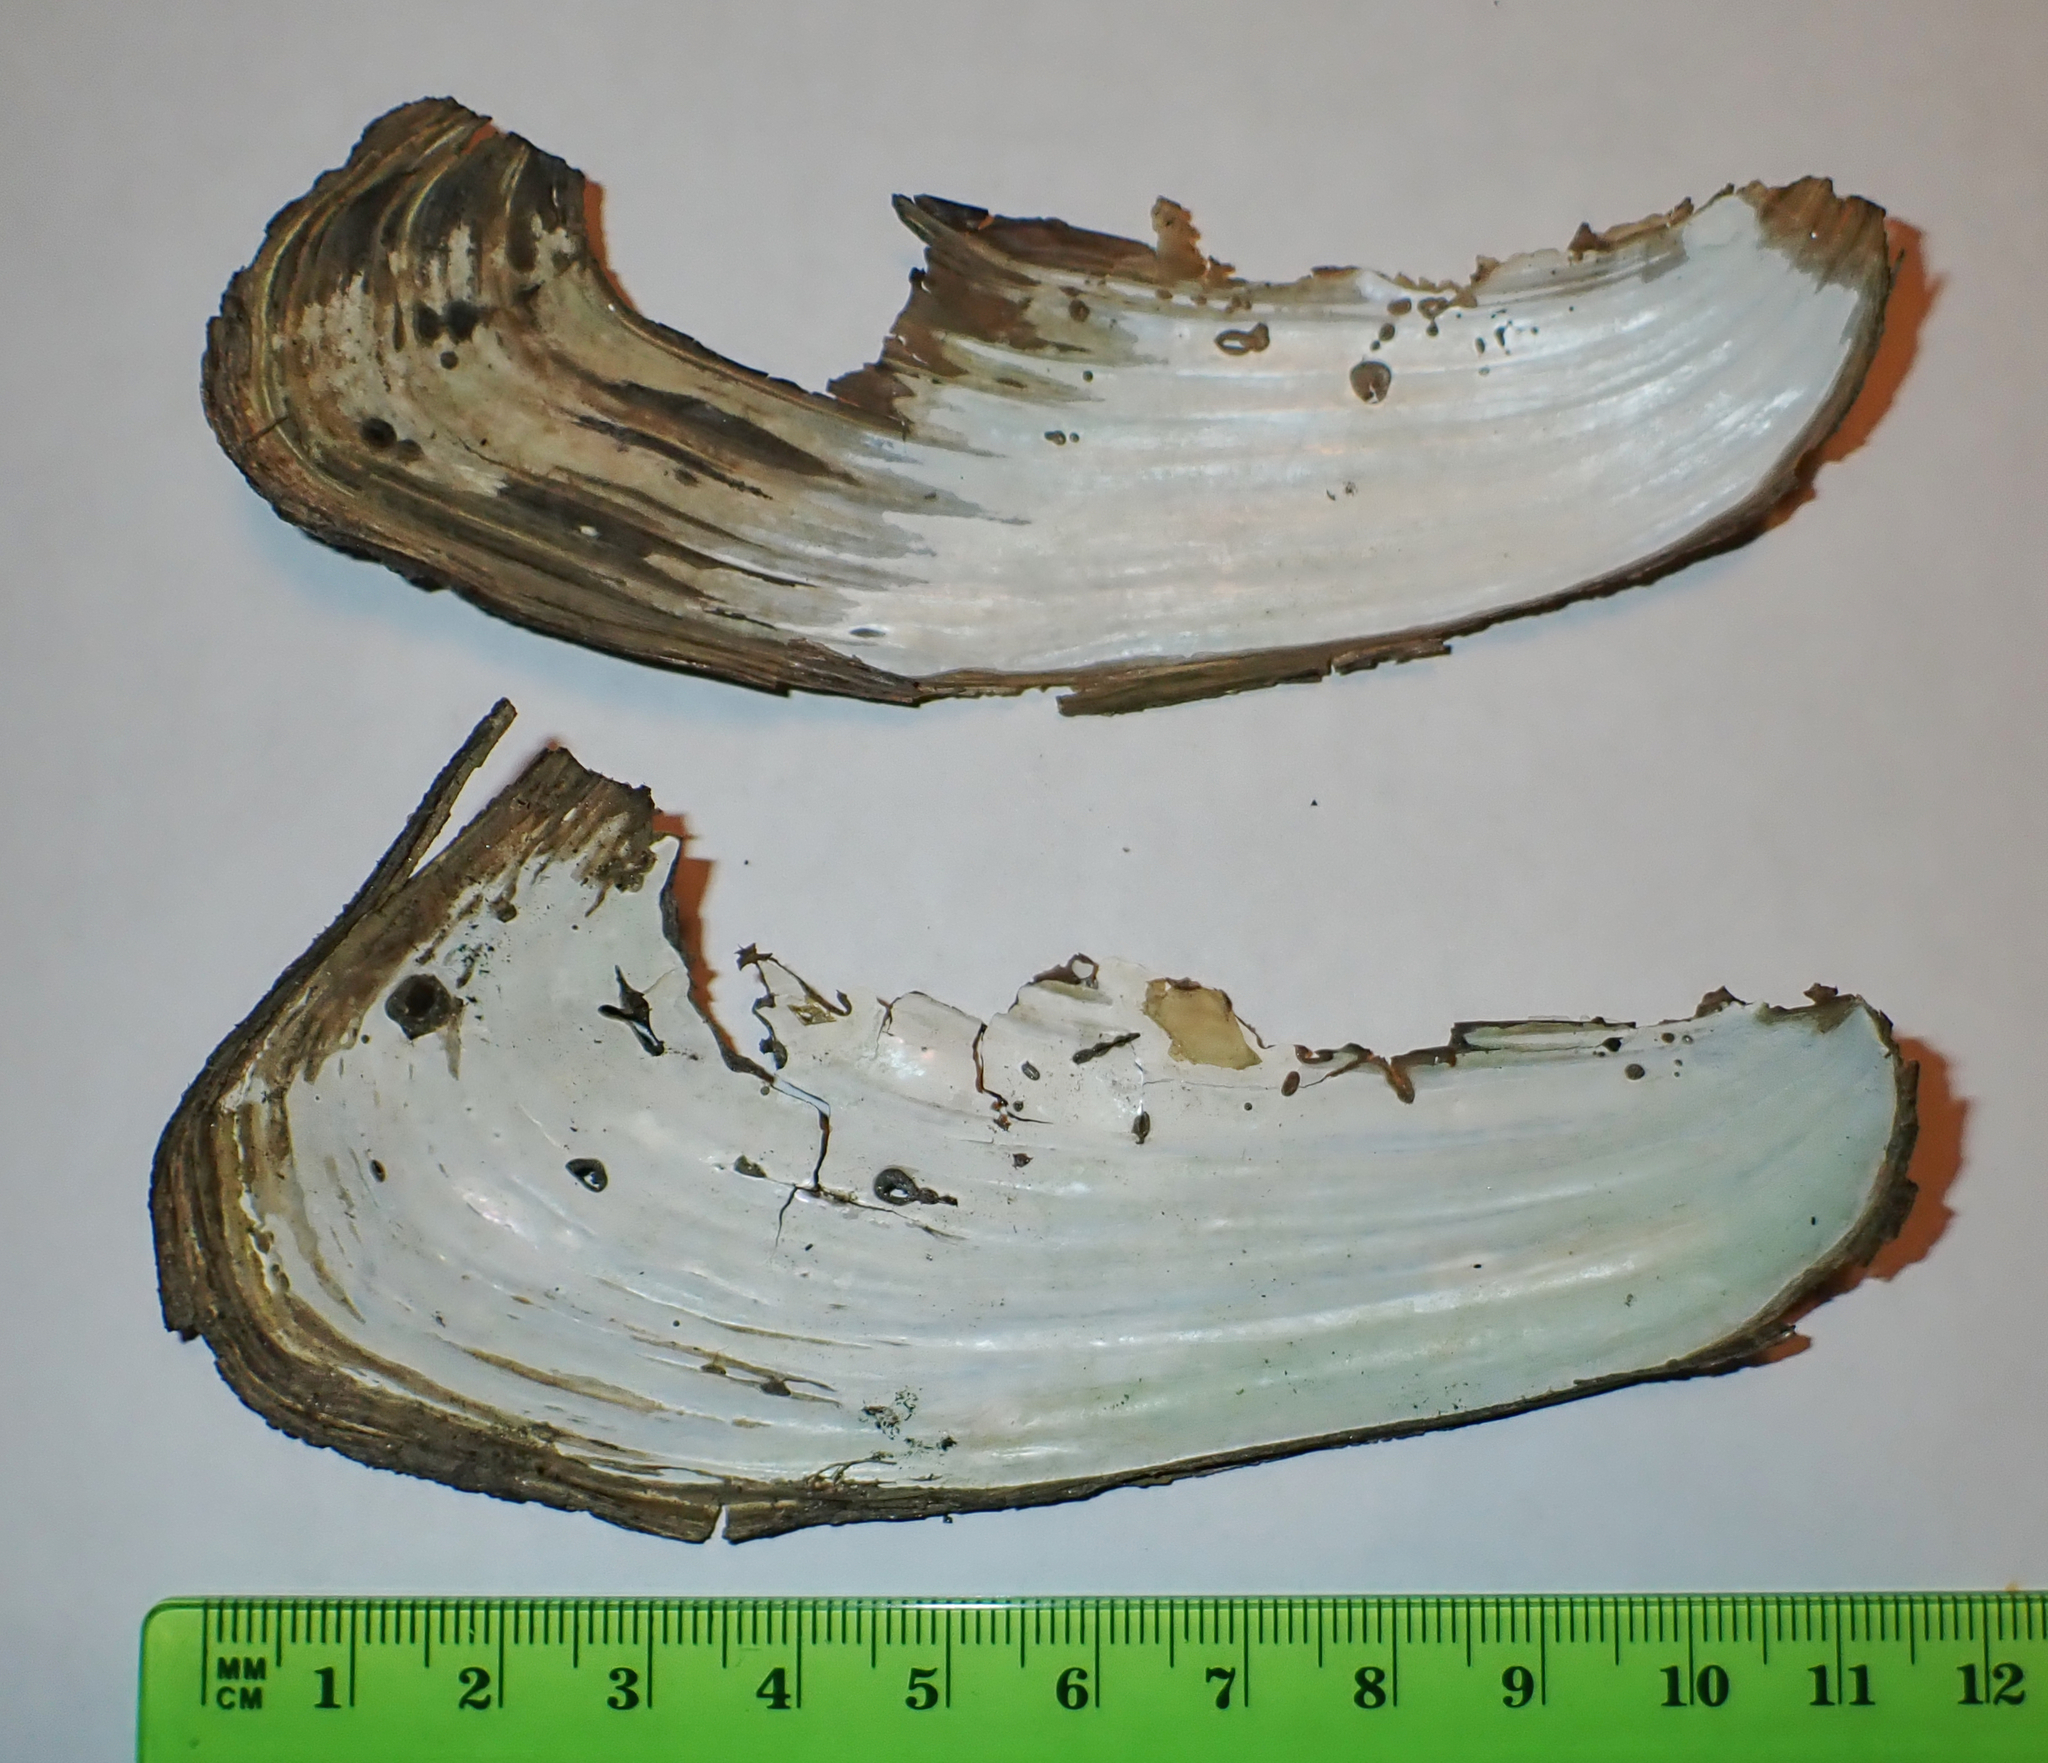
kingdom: Animalia
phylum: Mollusca
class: Bivalvia
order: Unionida
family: Unionidae
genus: Pyganodon
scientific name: Pyganodon cataracta
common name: Eastern floater
